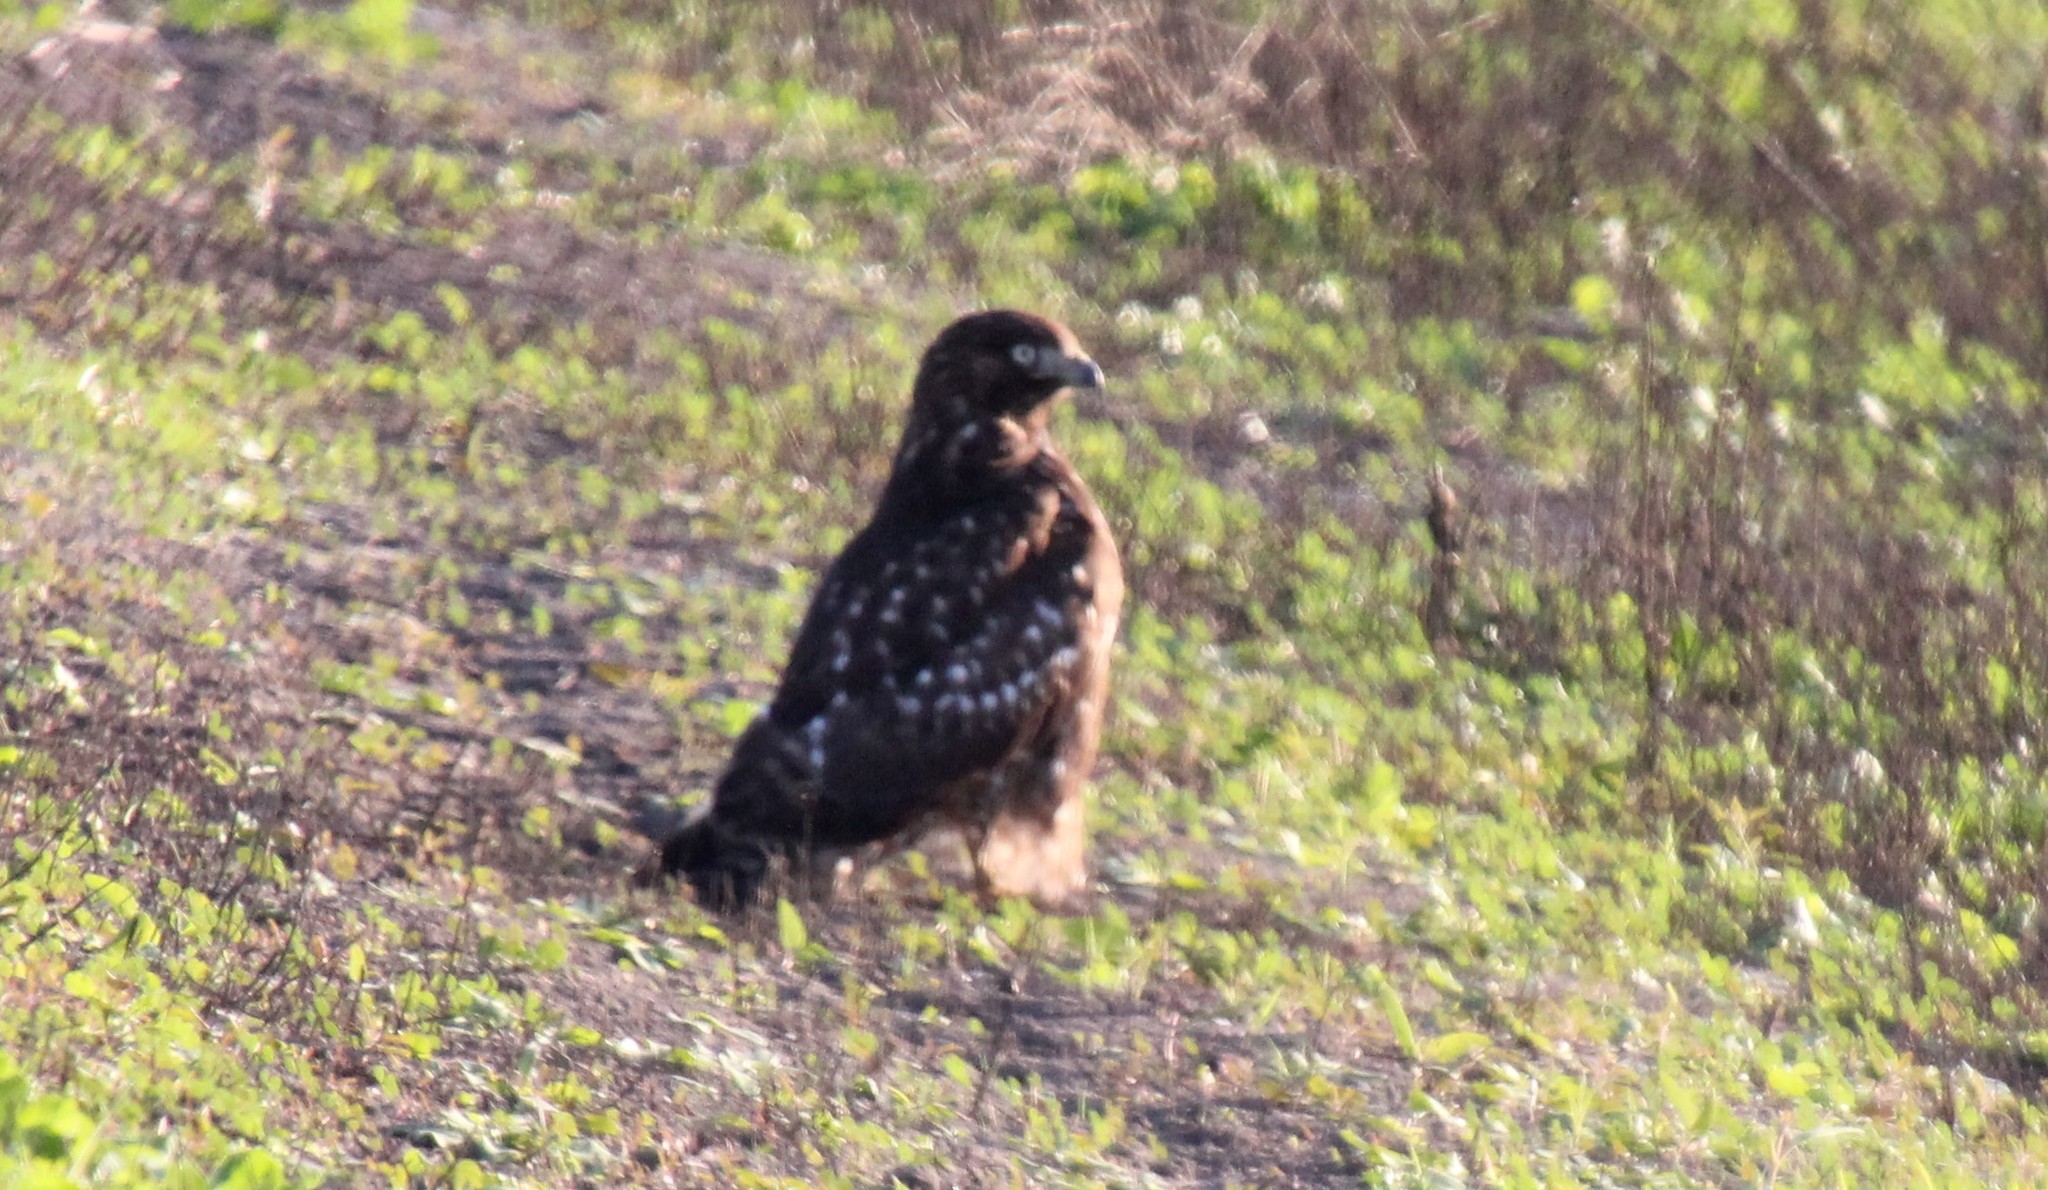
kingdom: Animalia
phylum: Chordata
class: Aves
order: Accipitriformes
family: Accipitridae
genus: Buteo
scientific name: Buteo jamaicensis
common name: Red-tailed hawk
